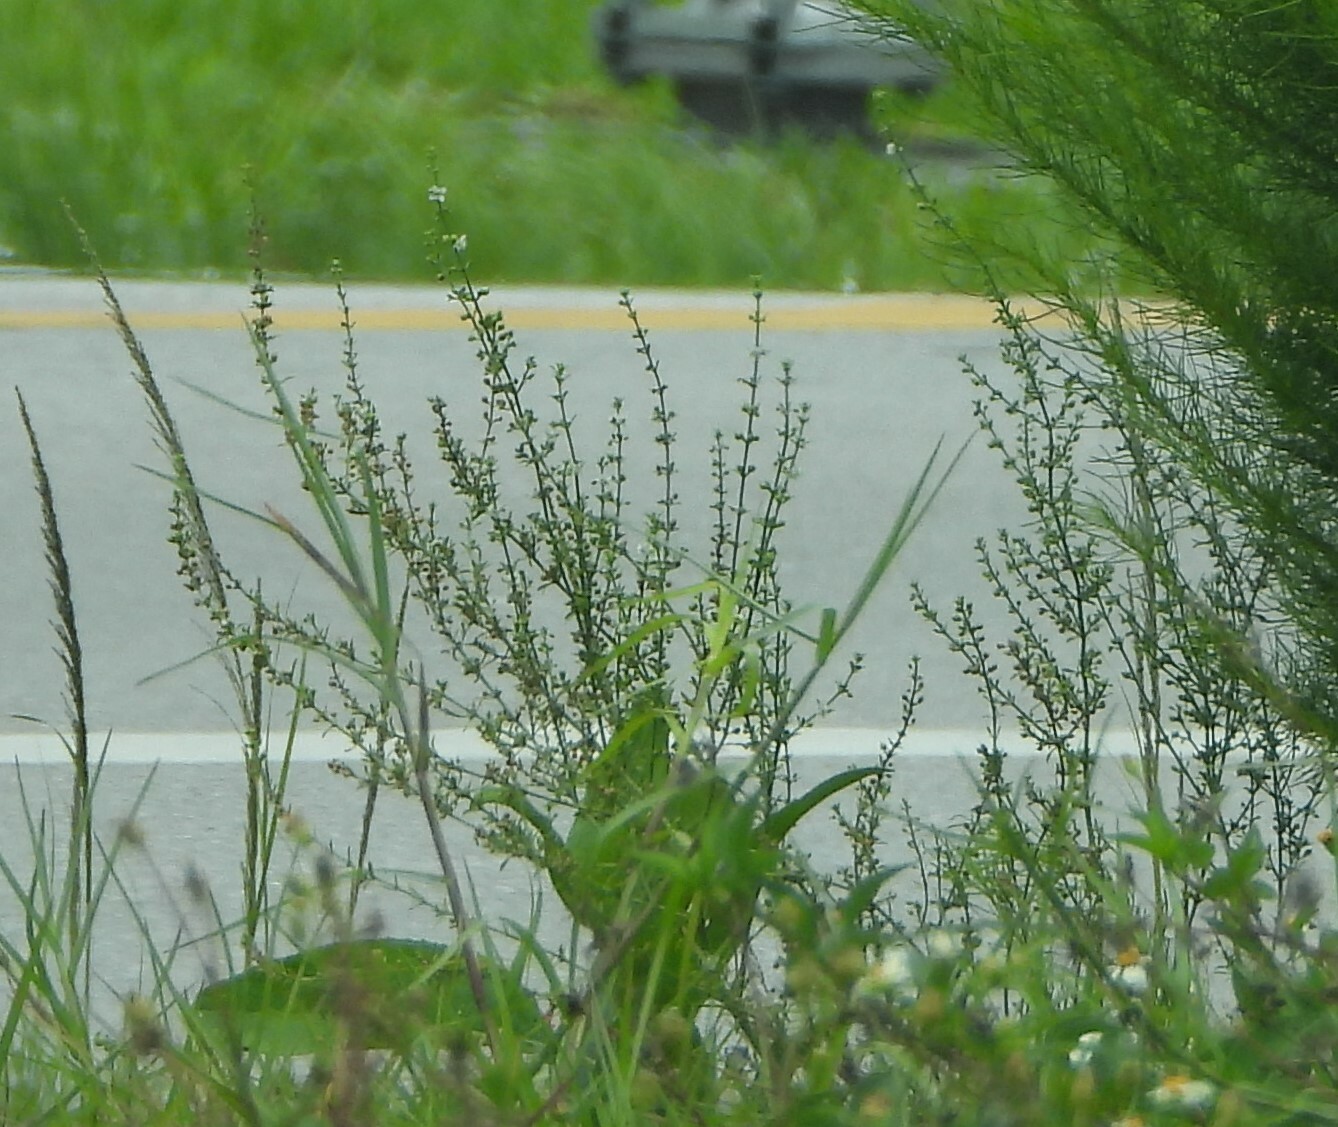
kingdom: Plantae
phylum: Tracheophyta
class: Magnoliopsida
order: Lamiales
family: Plantaginaceae
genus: Scoparia
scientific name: Scoparia dulcis
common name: Scoparia-weed
